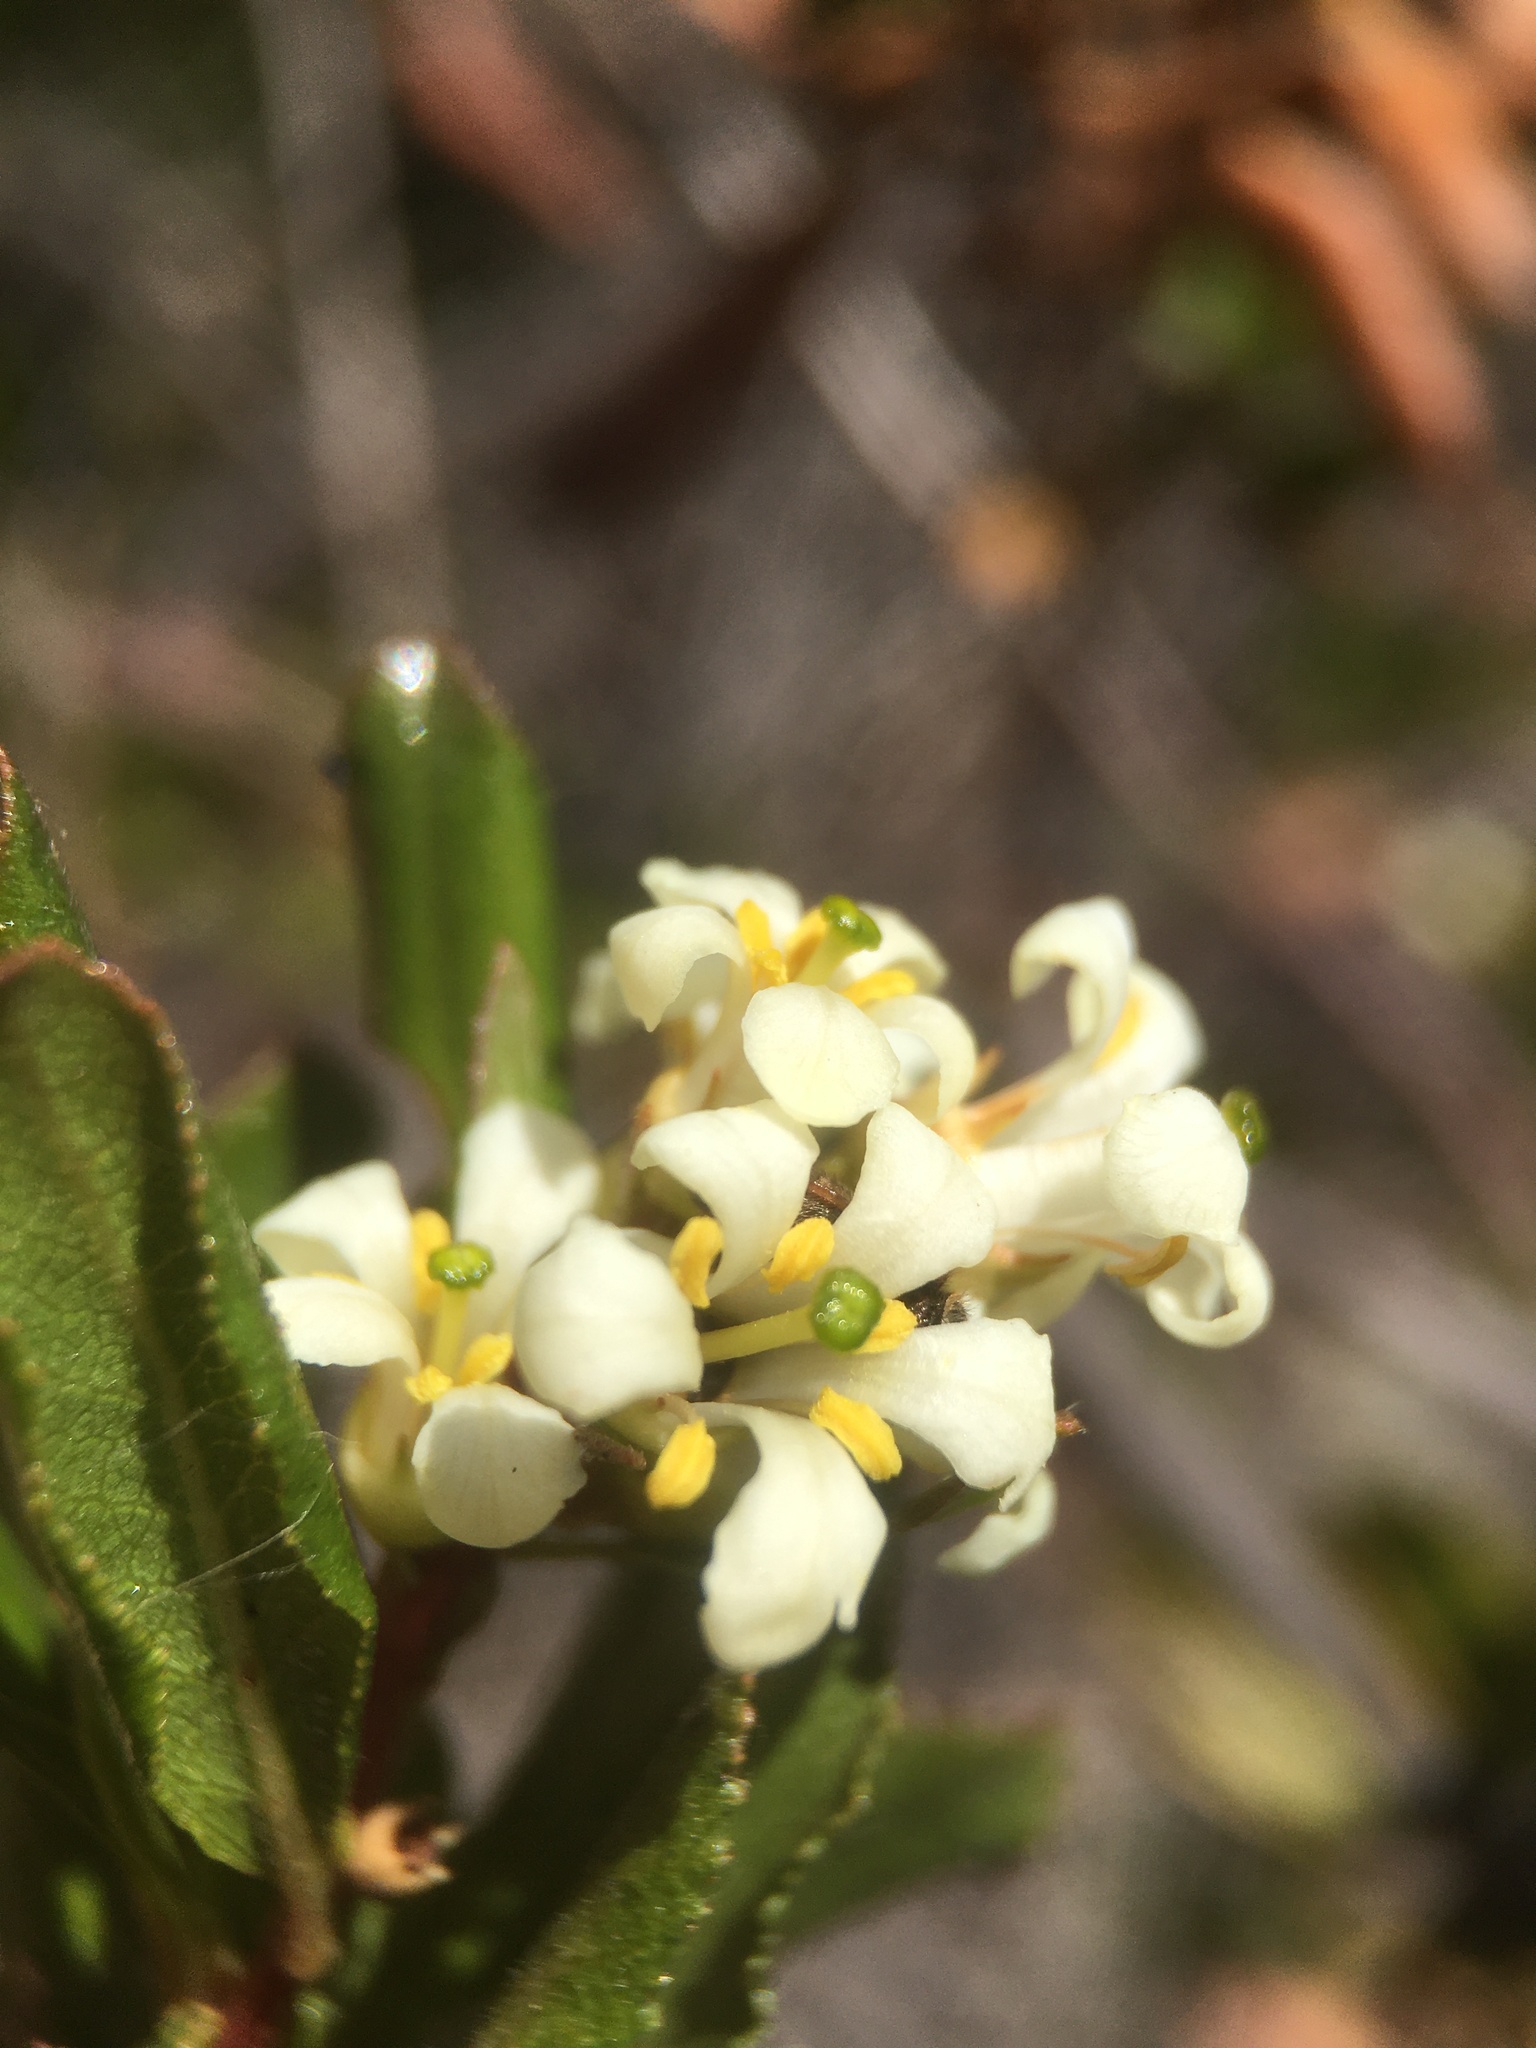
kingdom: Plantae
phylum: Tracheophyta
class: Magnoliopsida
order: Escalloniales
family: Escalloniaceae
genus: Escallonia
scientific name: Escallonia illinita
